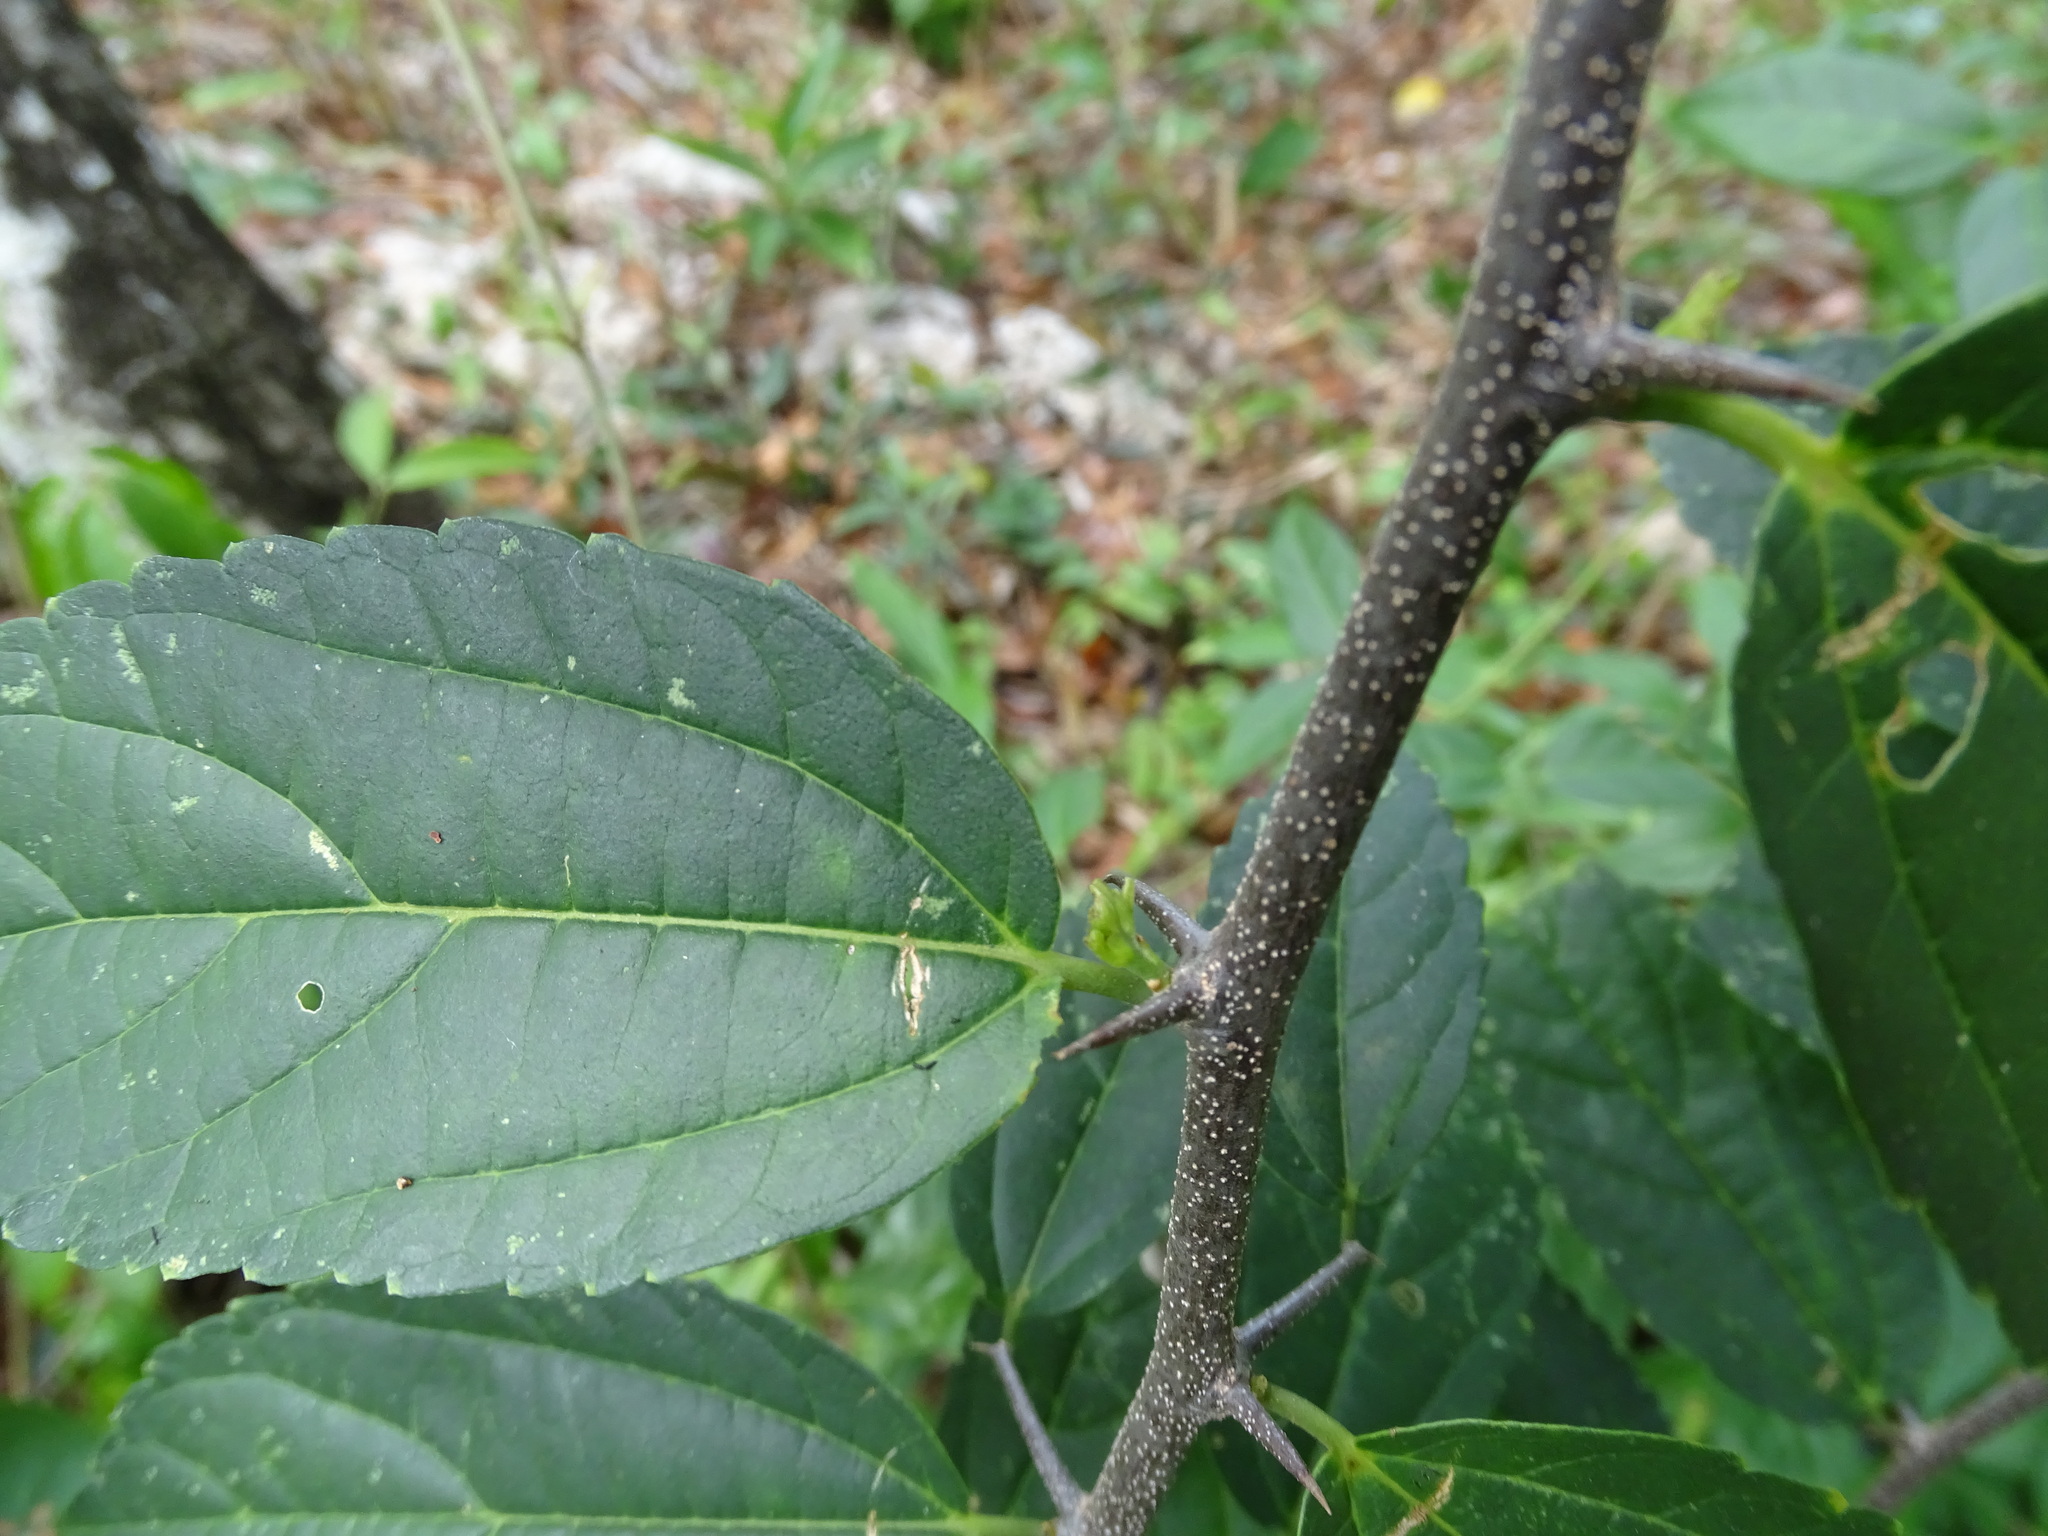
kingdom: Plantae
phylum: Tracheophyta
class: Magnoliopsida
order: Rosales
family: Cannabaceae
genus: Celtis
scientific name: Celtis iguanaea
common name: Iguana hackberry
